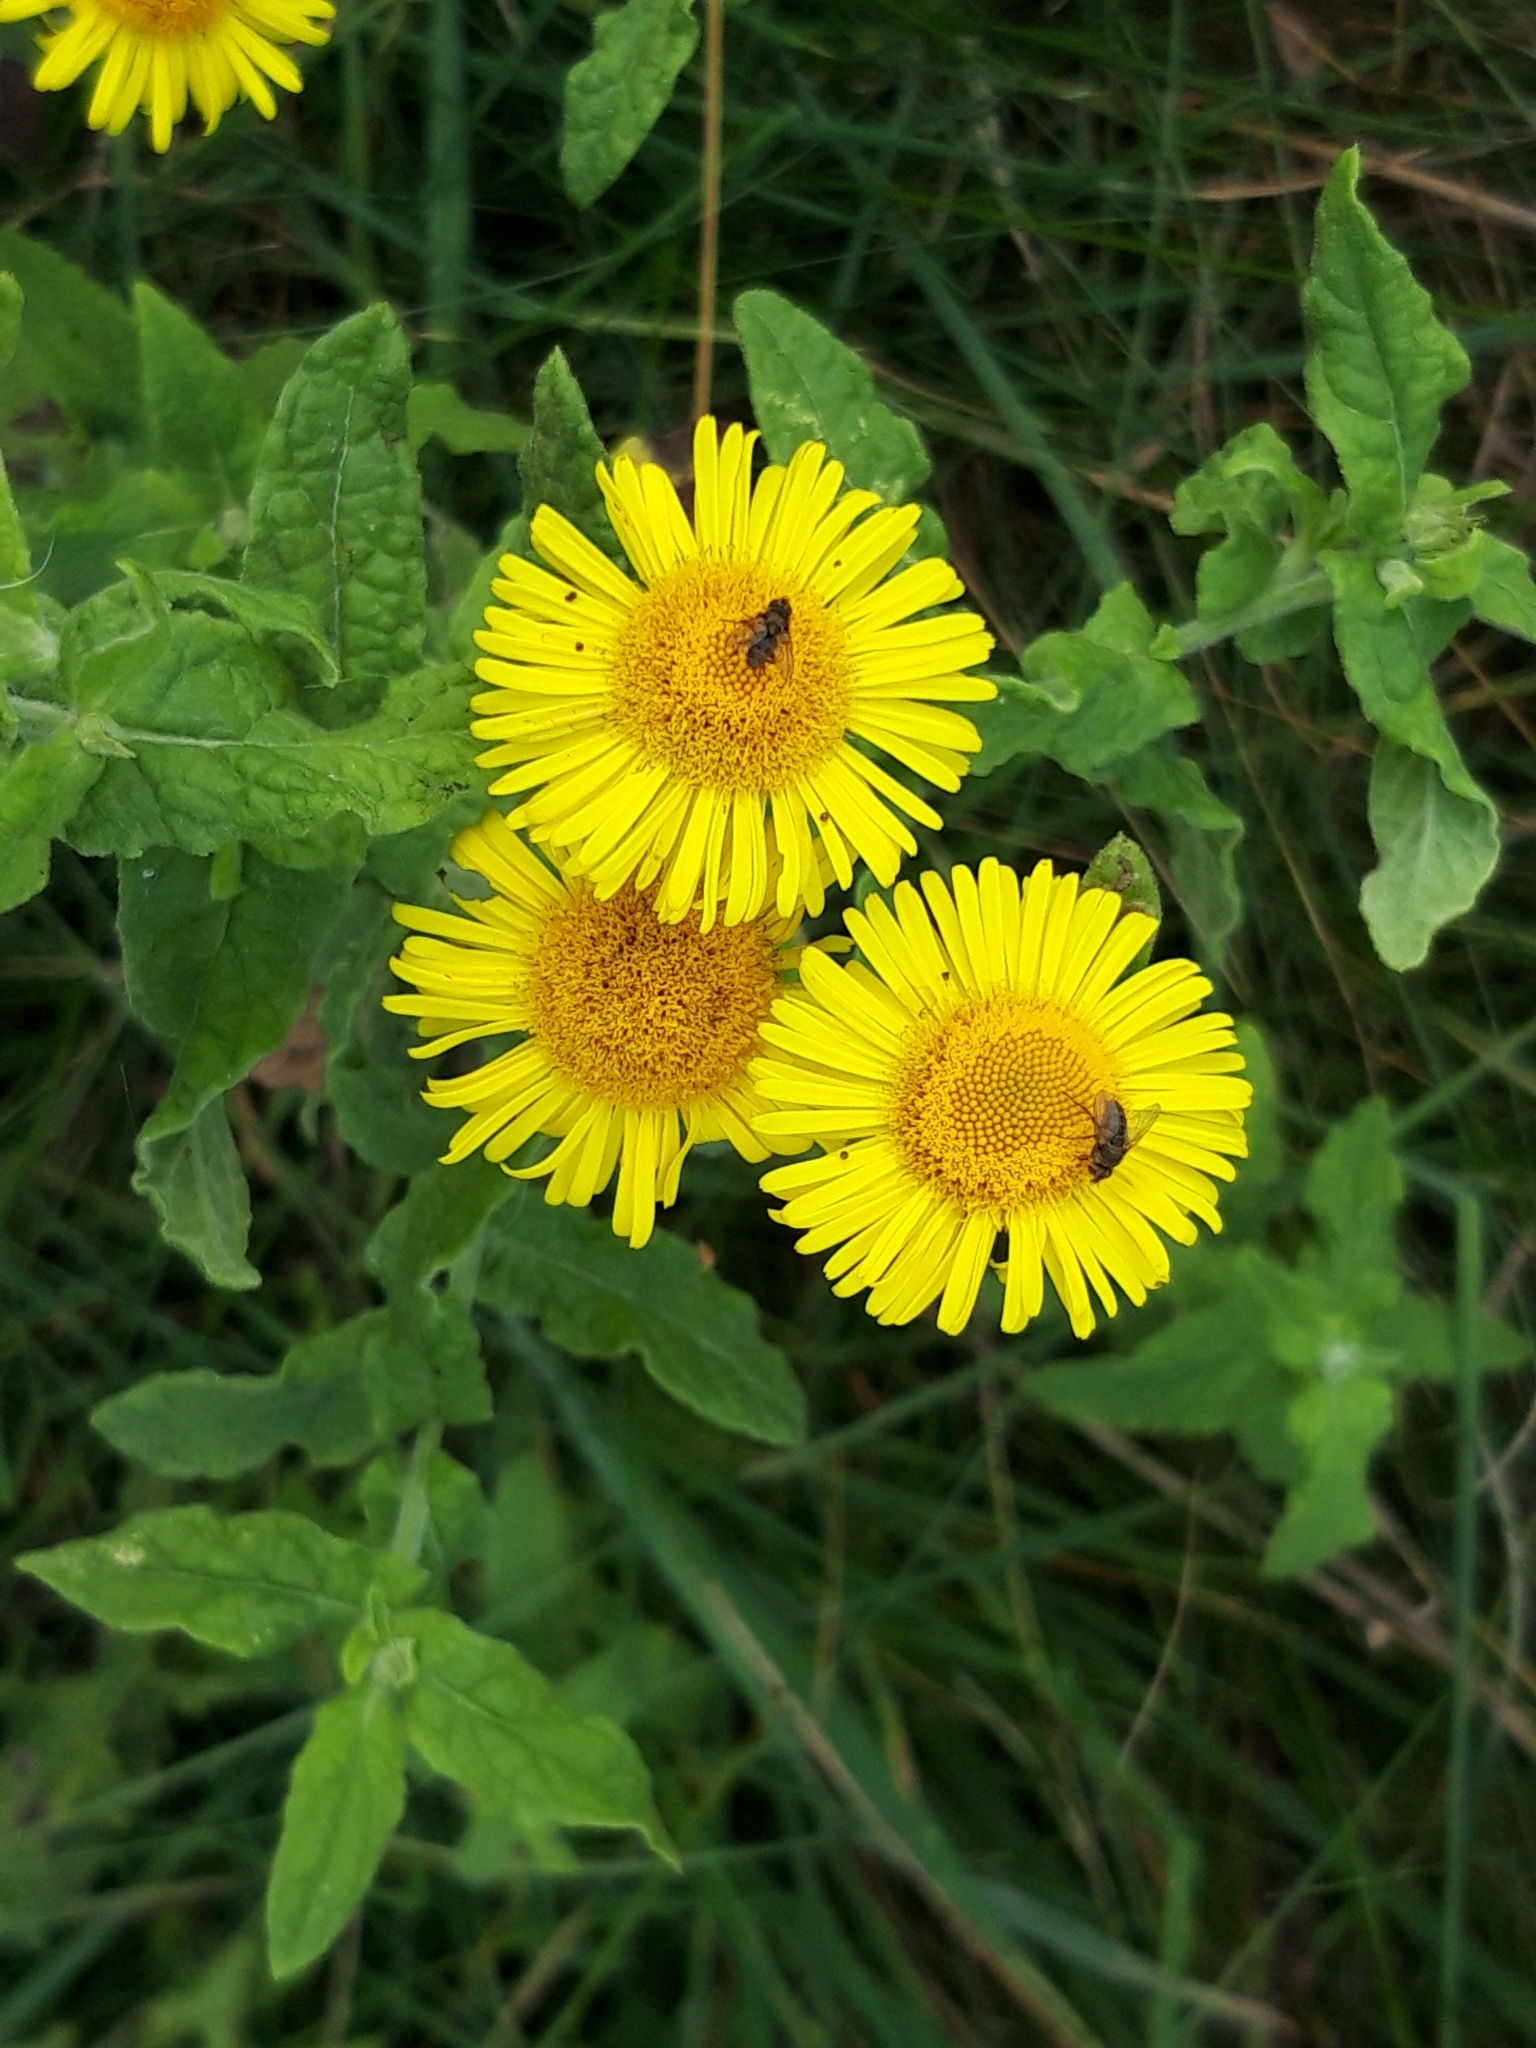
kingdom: Plantae
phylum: Tracheophyta
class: Magnoliopsida
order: Asterales
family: Asteraceae
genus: Pulicaria
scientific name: Pulicaria dysenterica
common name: Common fleabane
